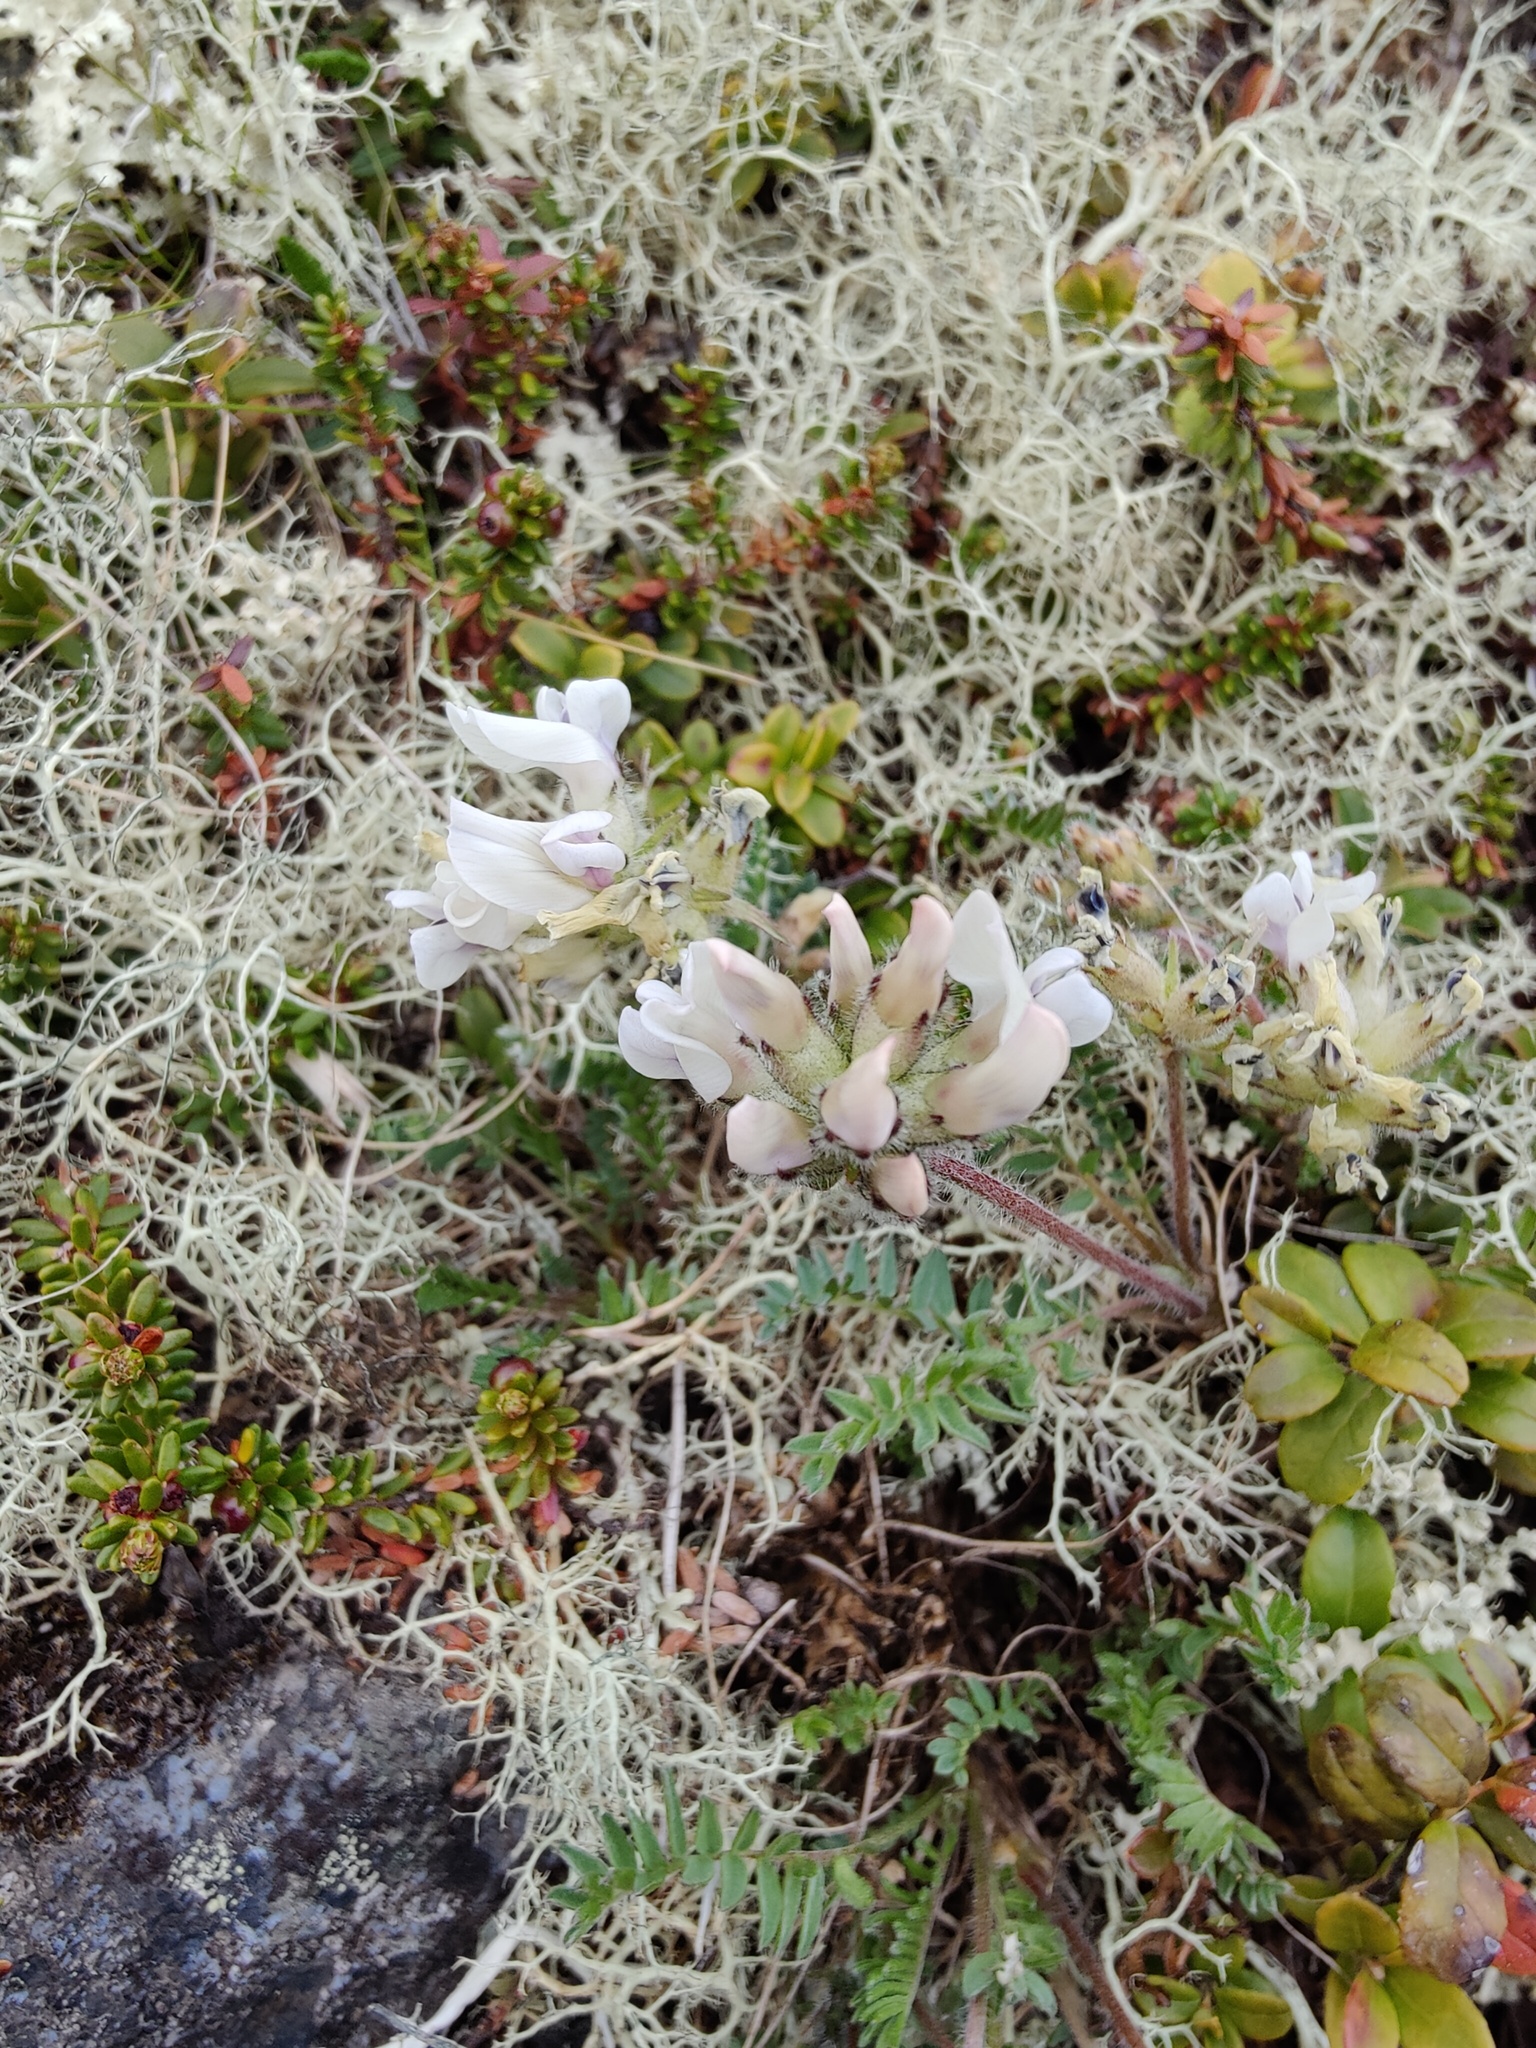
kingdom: Plantae
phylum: Tracheophyta
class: Magnoliopsida
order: Fabales
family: Fabaceae
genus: Oxytropis
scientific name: Oxytropis sordida
